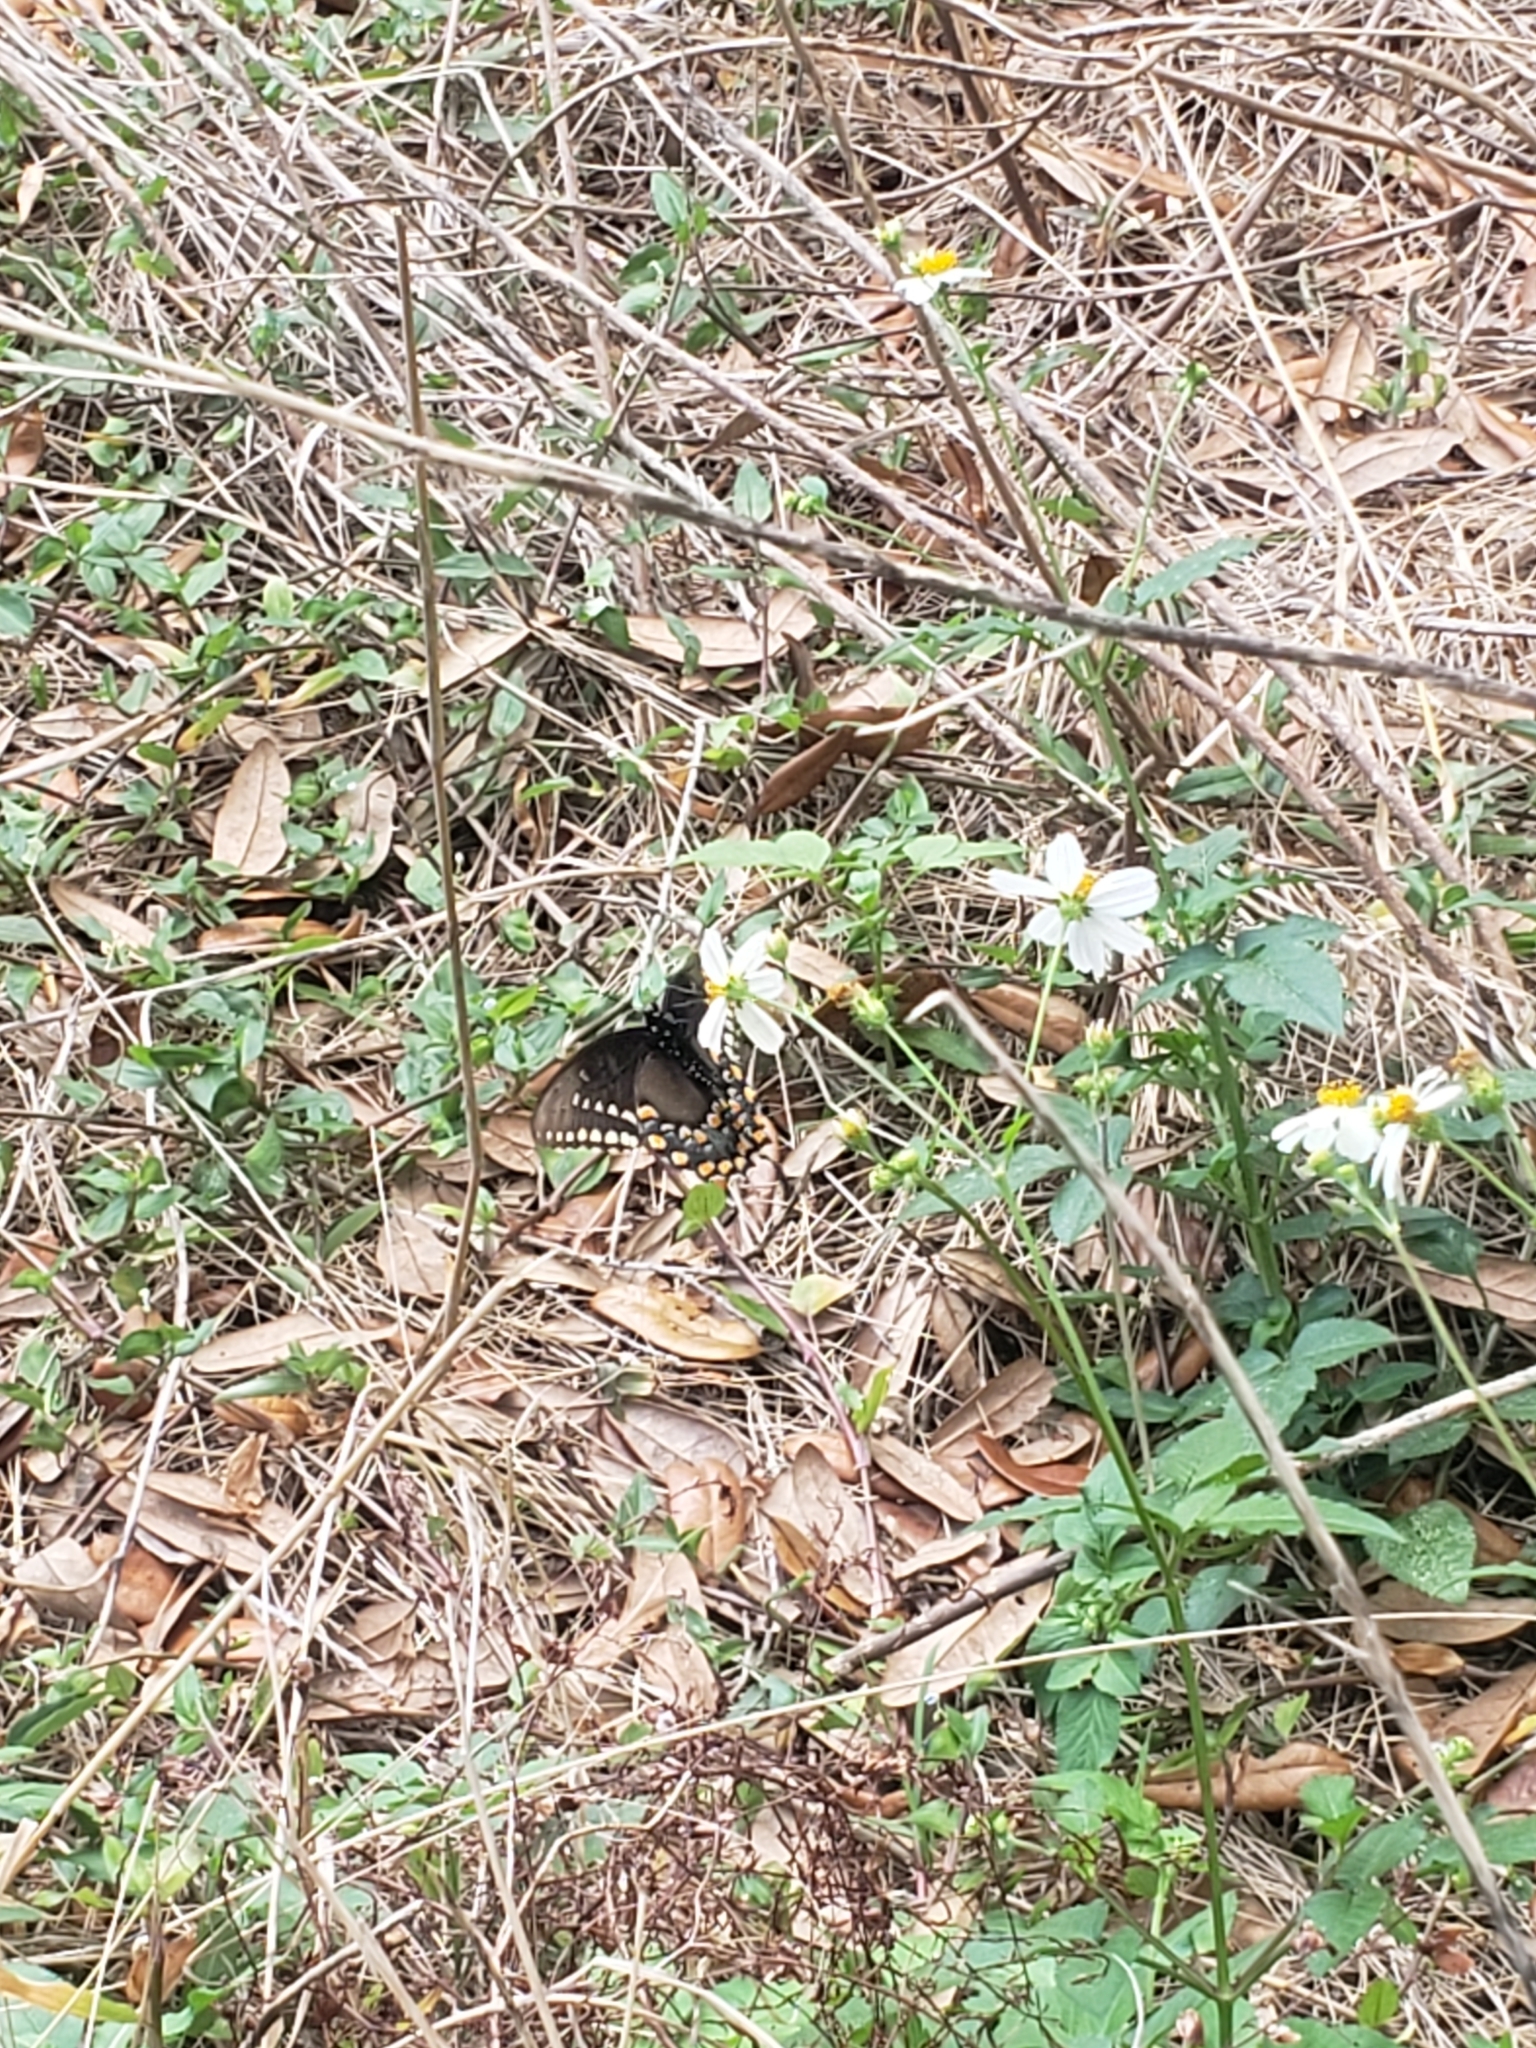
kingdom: Animalia
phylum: Arthropoda
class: Insecta
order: Lepidoptera
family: Papilionidae
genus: Papilio
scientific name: Papilio troilus
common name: Spicebush swallowtail
